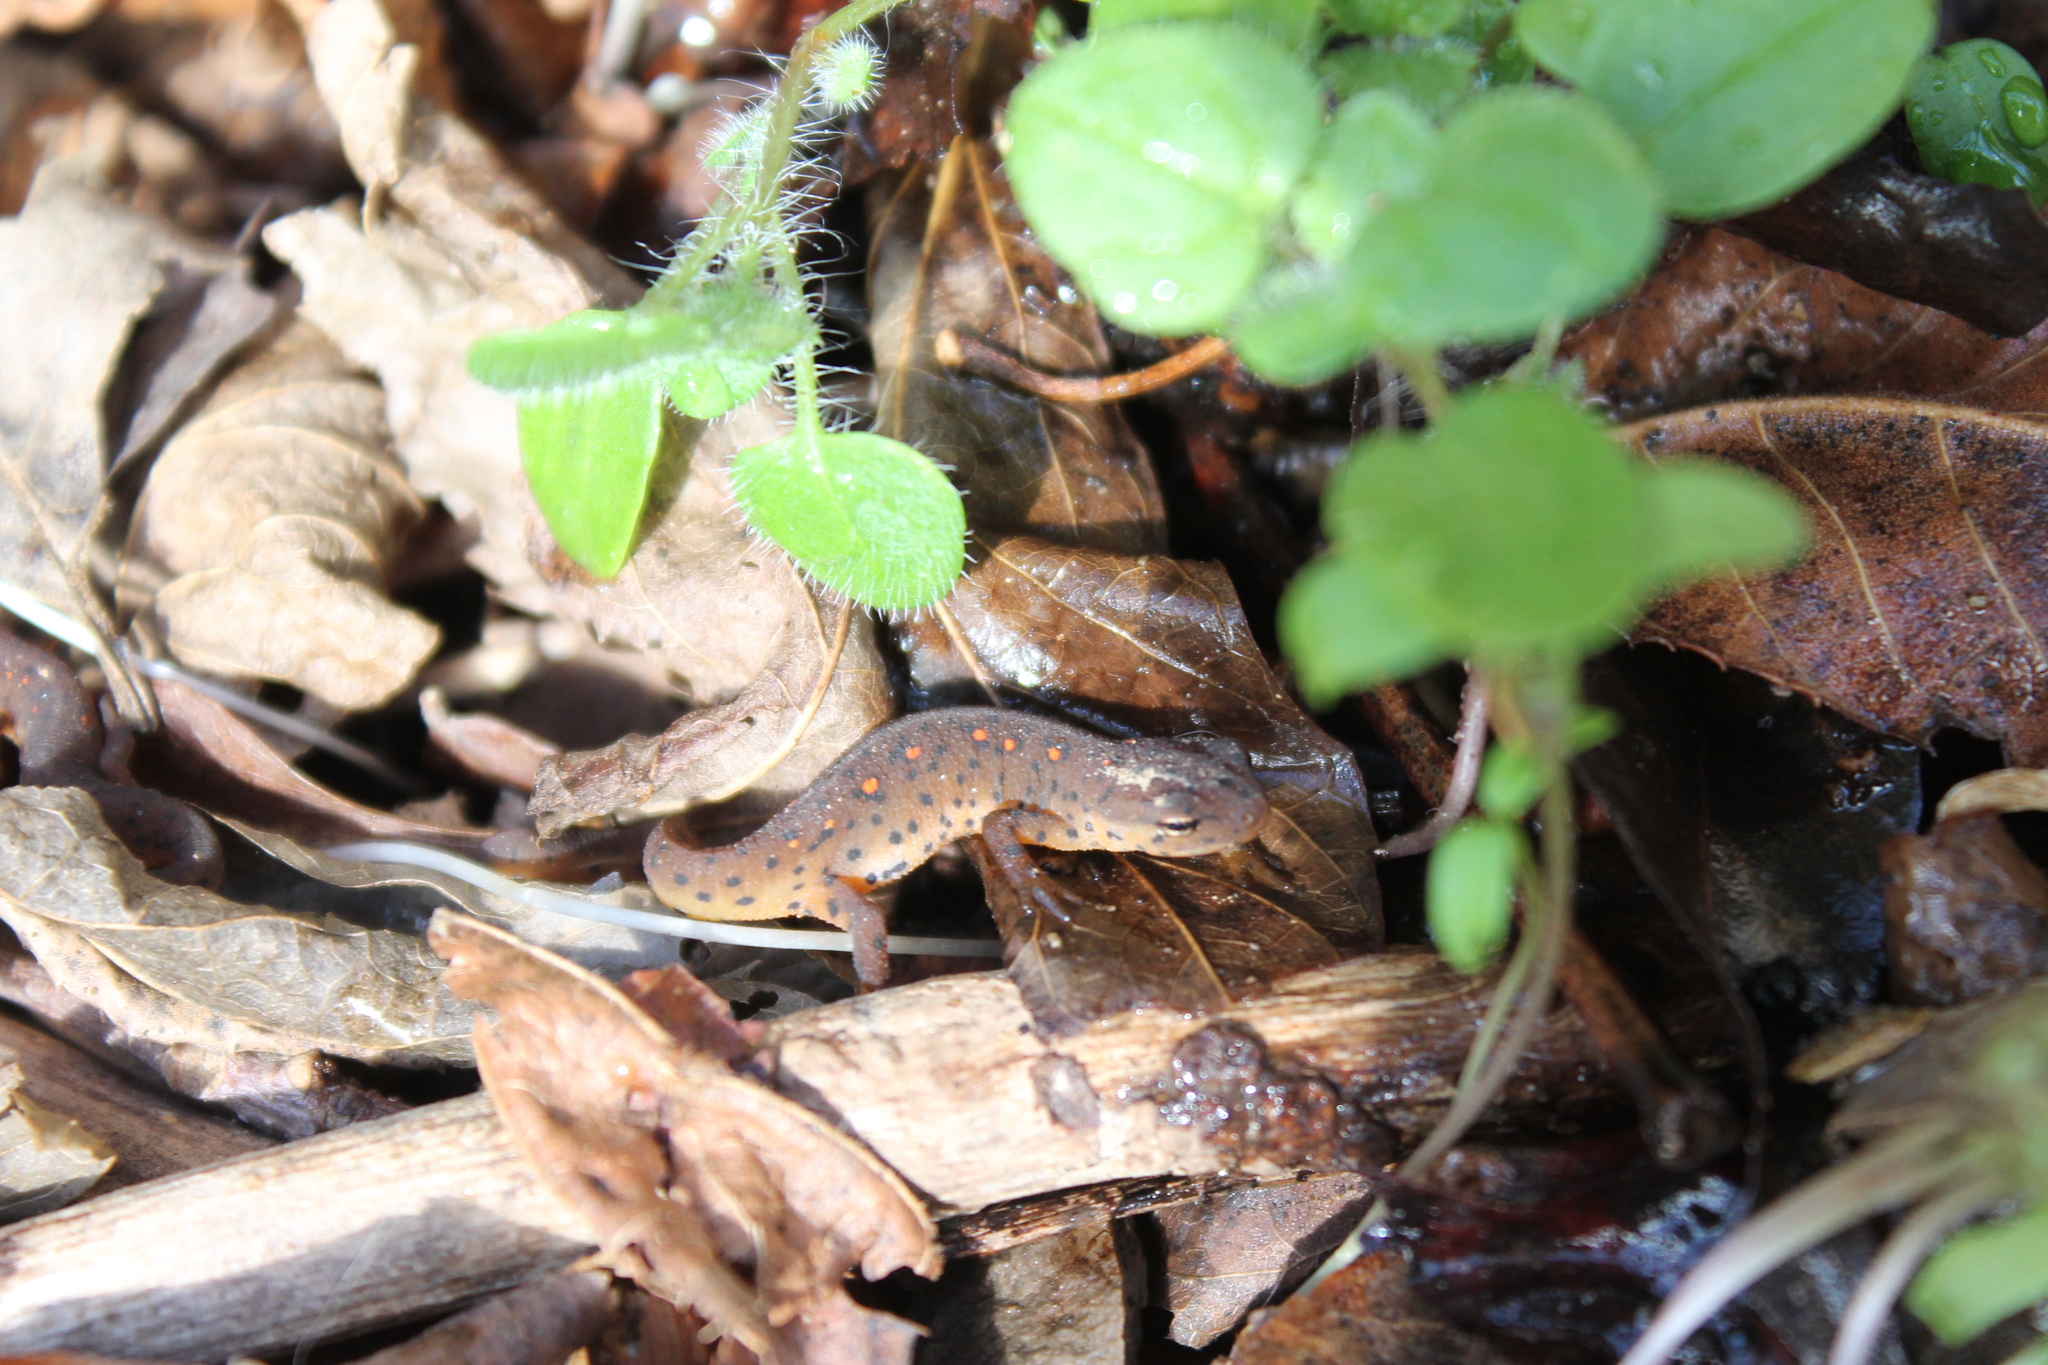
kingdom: Animalia
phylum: Chordata
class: Amphibia
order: Caudata
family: Salamandridae
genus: Notophthalmus
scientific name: Notophthalmus viridescens
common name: Eastern newt
